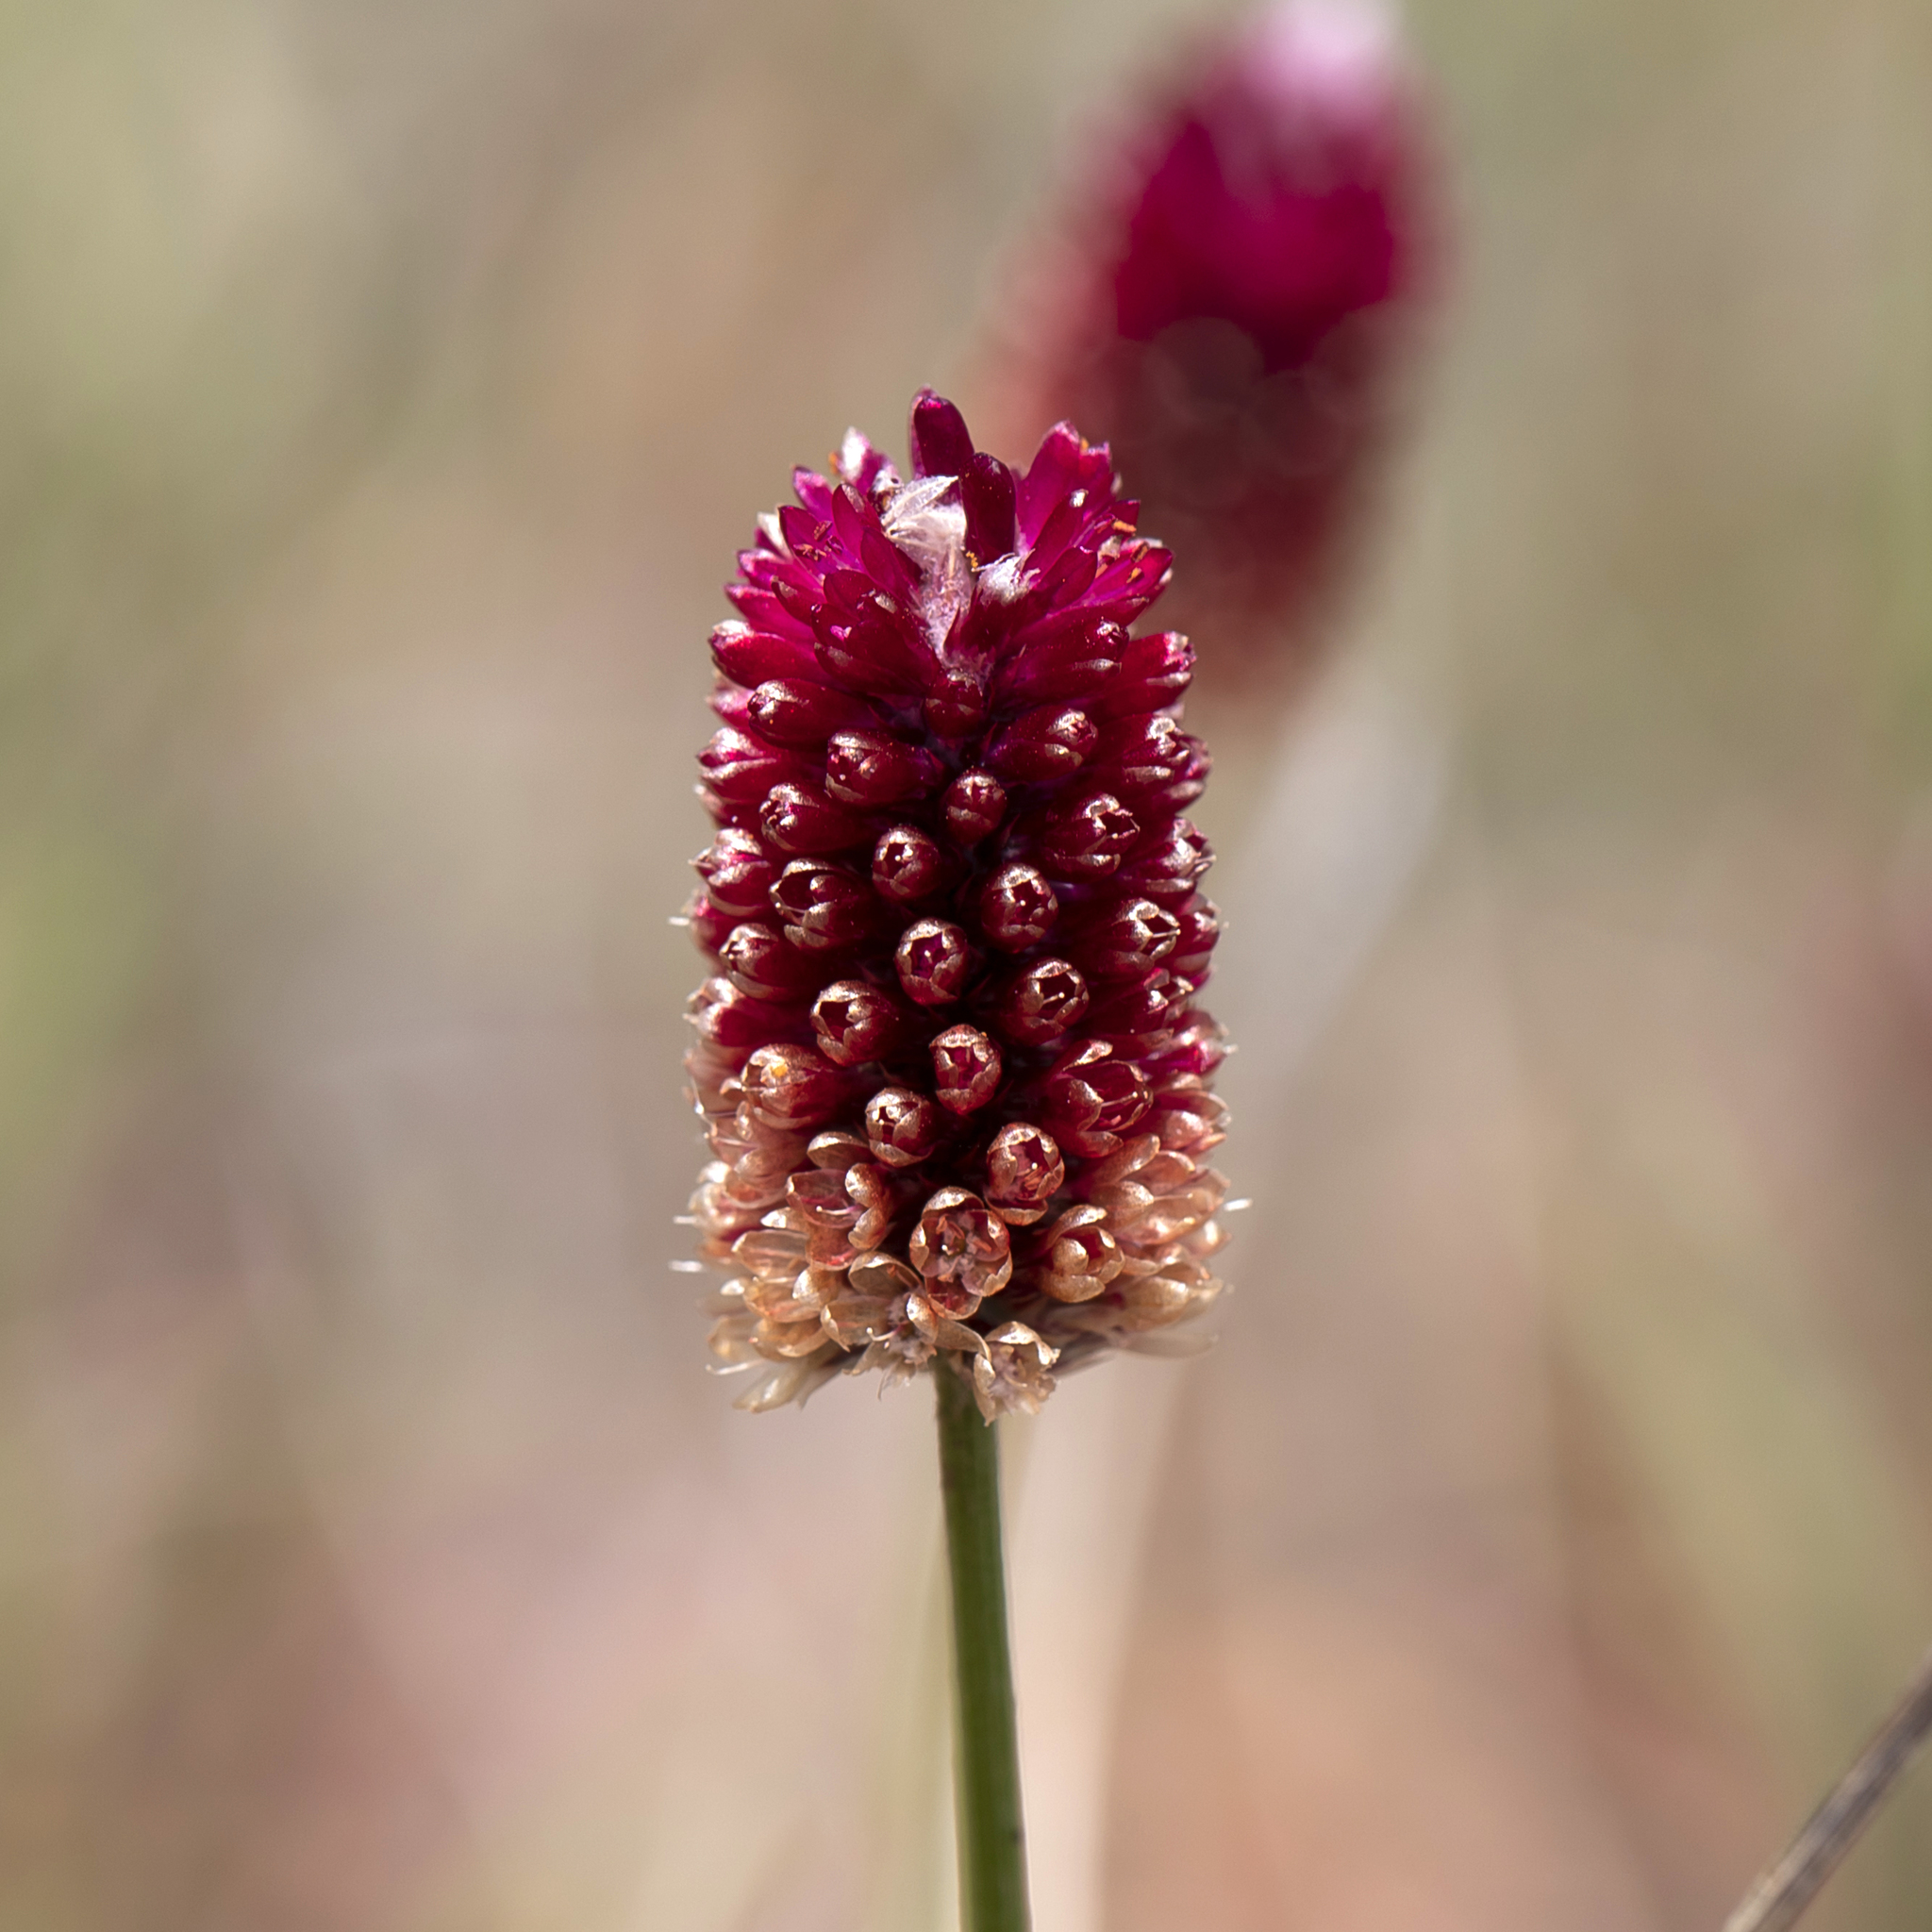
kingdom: Plantae
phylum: Tracheophyta
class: Magnoliopsida
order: Caryophyllales
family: Amaranthaceae
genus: Ptilotus
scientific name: Ptilotus spicatus
